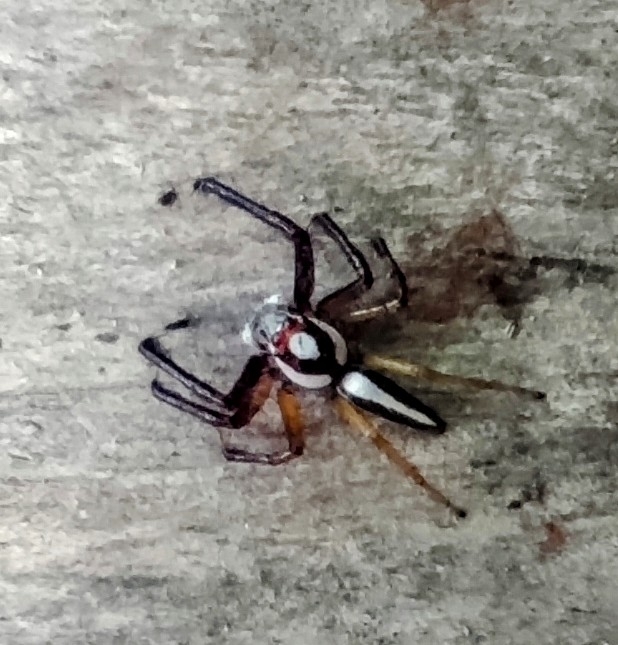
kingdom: Animalia
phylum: Arthropoda
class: Arachnida
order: Araneae
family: Salticidae
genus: Telamonia
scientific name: Telamonia dimidiata
